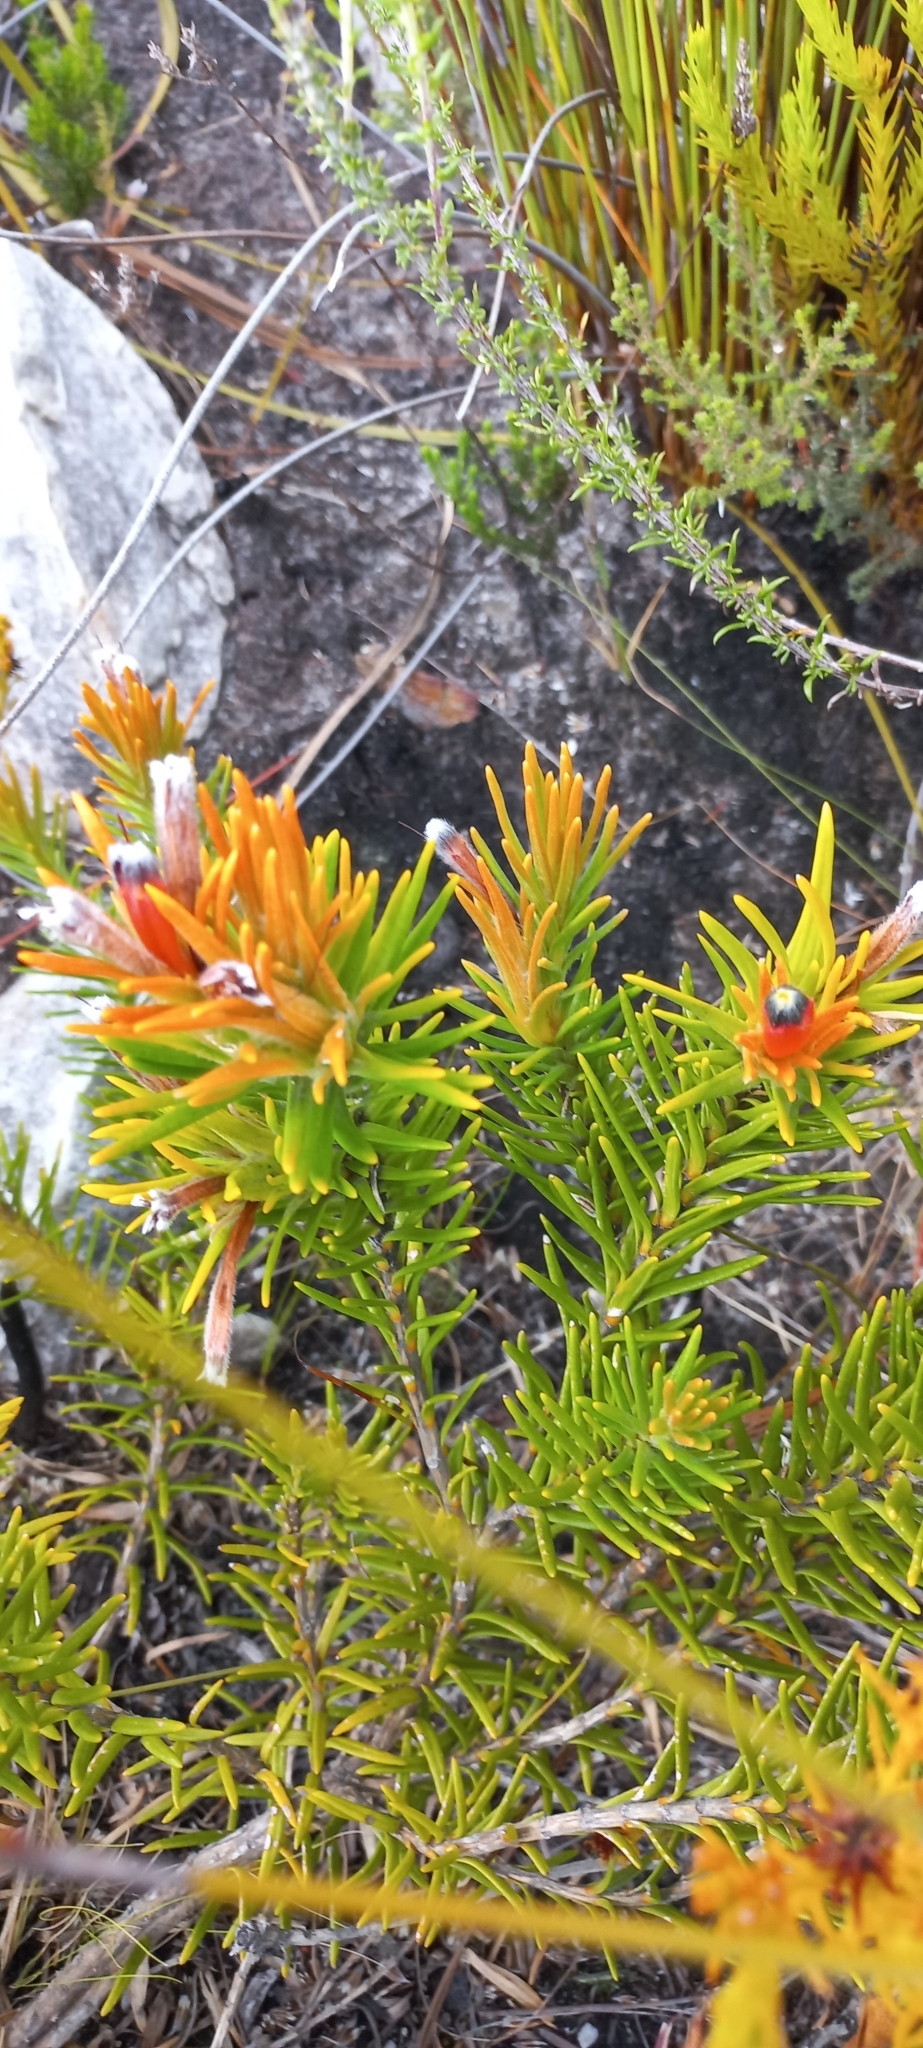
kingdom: Plantae
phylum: Tracheophyta
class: Magnoliopsida
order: Lamiales
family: Stilbaceae
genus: Retzia
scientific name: Retzia capensis
